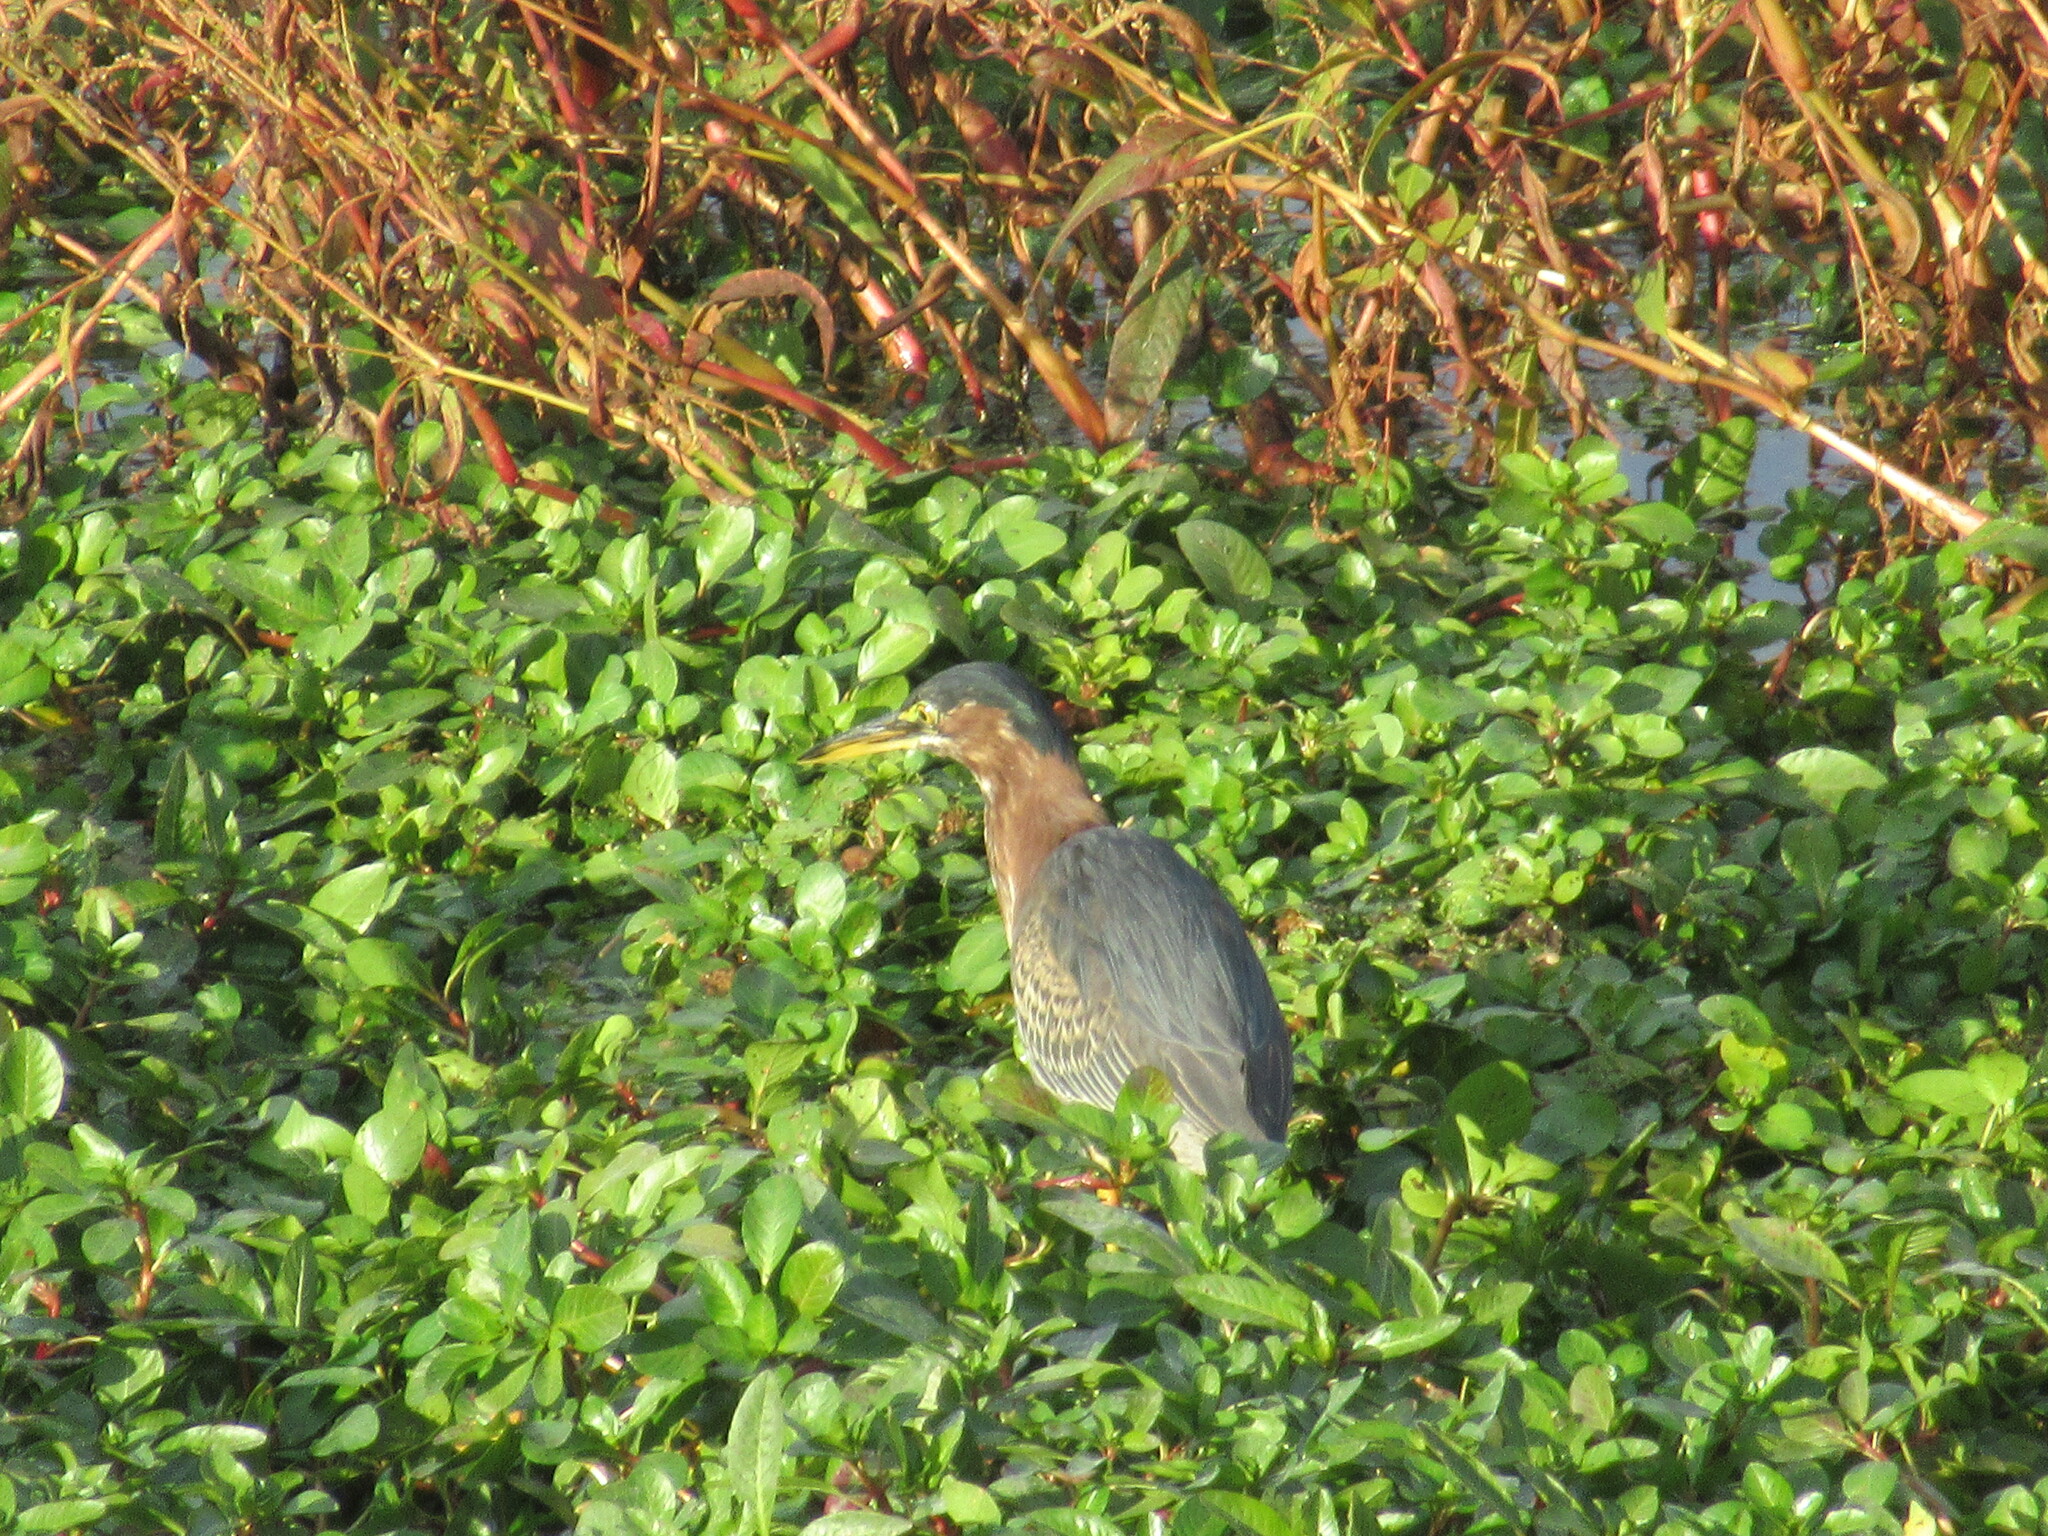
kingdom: Animalia
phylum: Chordata
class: Aves
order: Pelecaniformes
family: Ardeidae
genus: Butorides
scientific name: Butorides virescens
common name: Green heron
